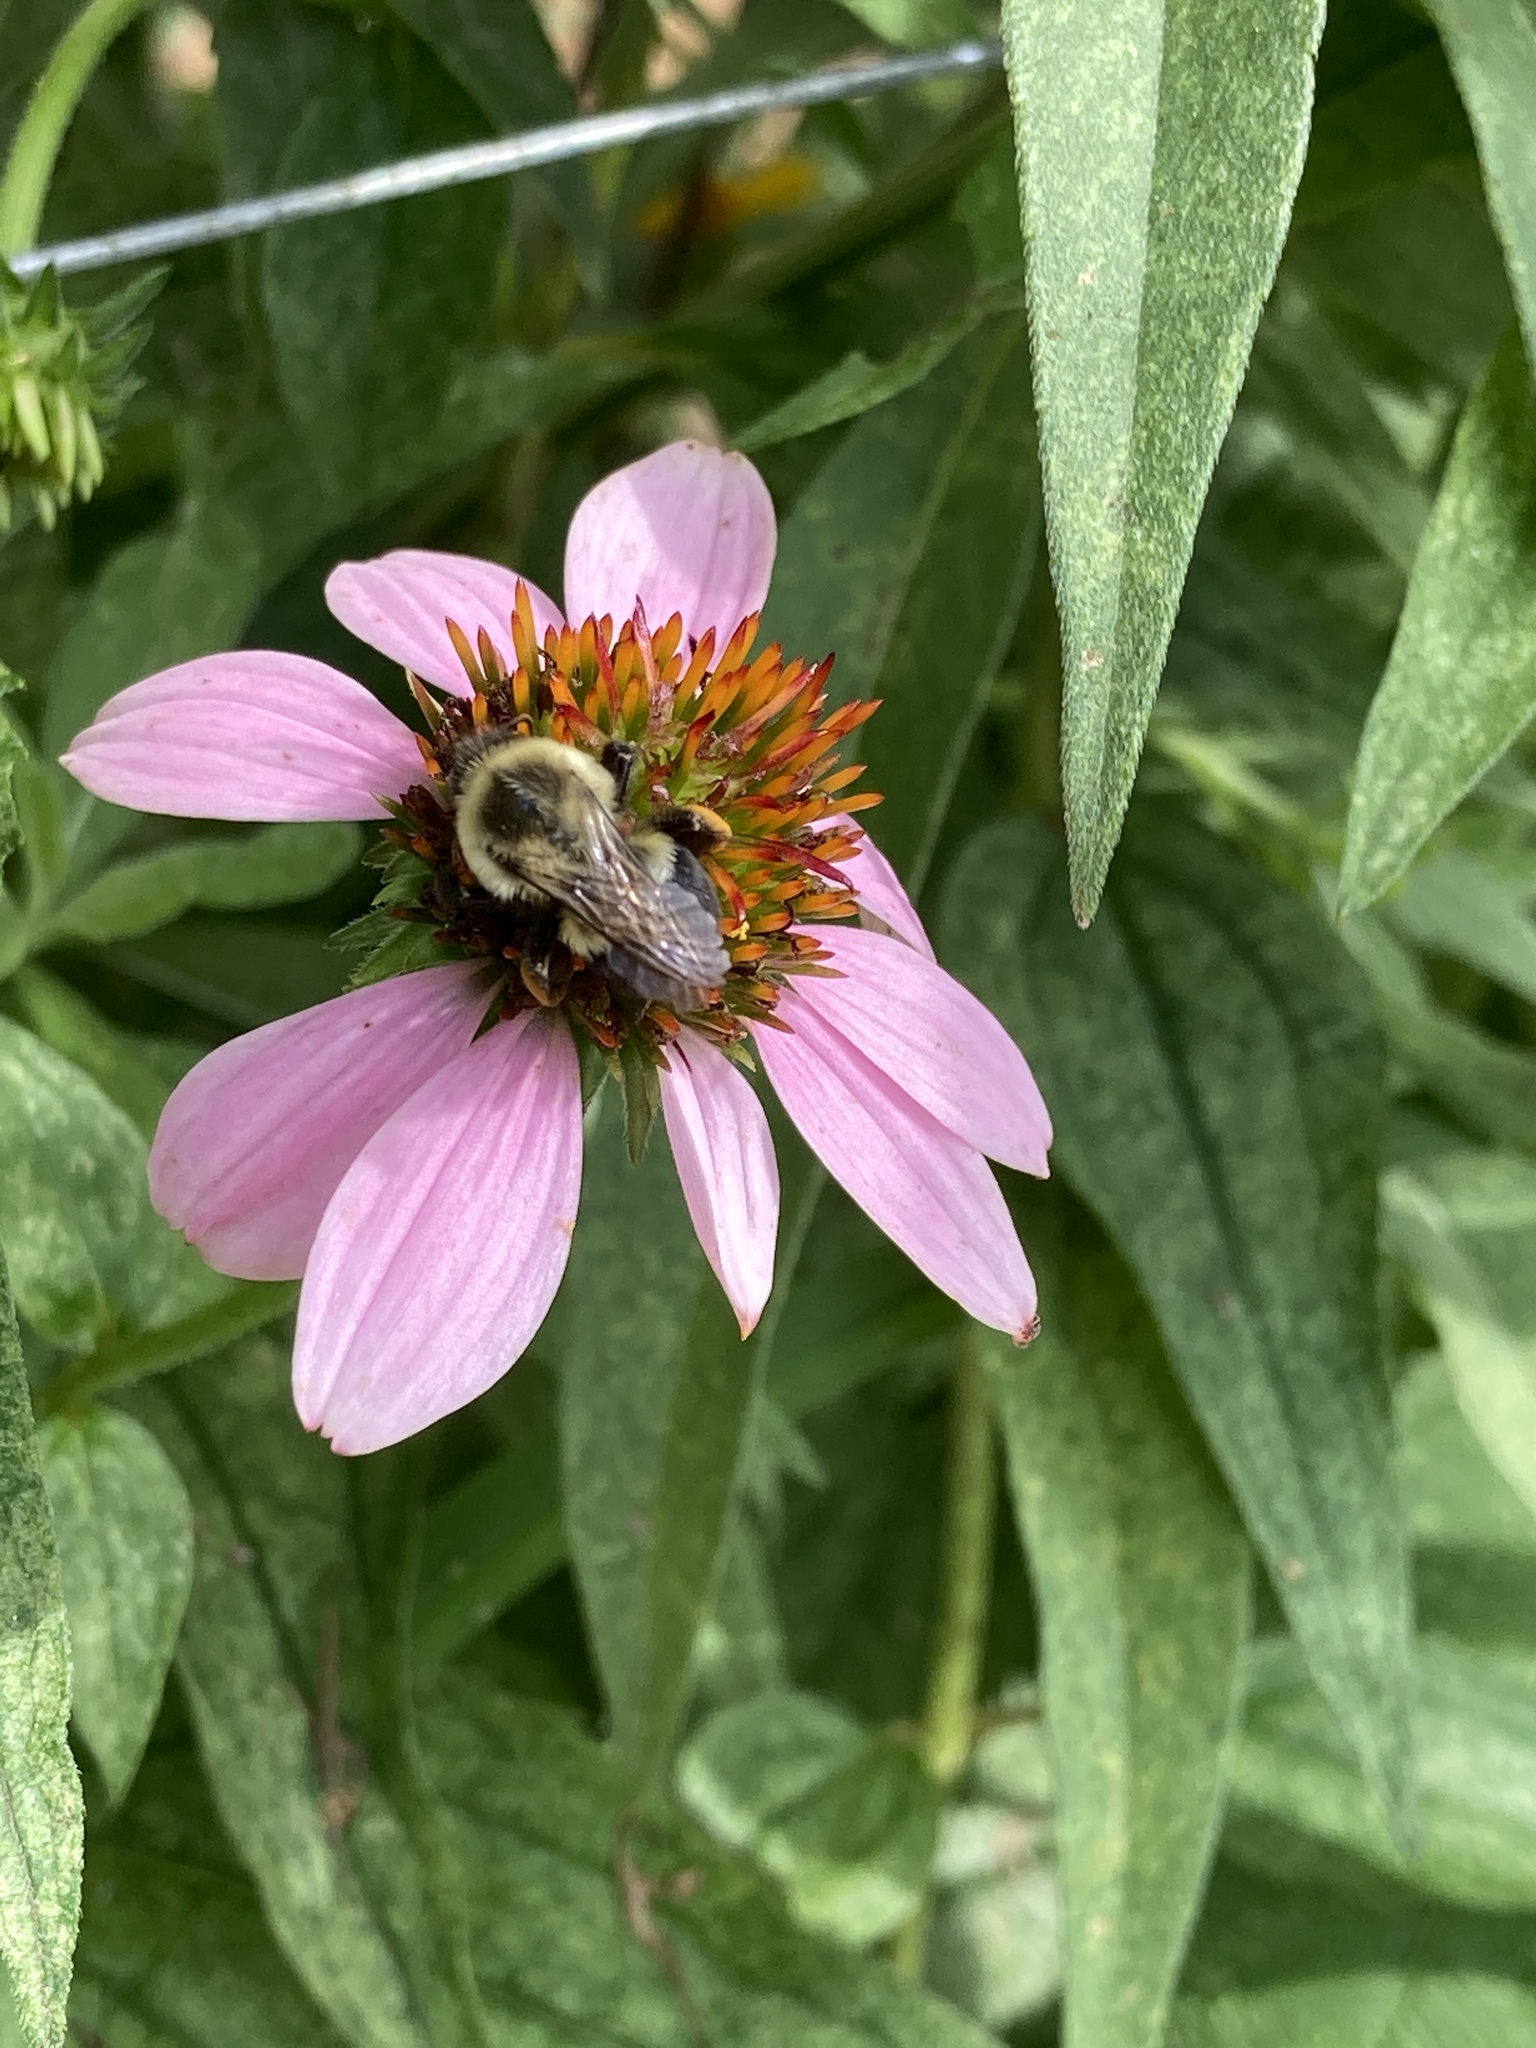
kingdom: Animalia
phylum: Arthropoda
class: Insecta
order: Hymenoptera
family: Apidae
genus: Bombus
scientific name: Bombus impatiens
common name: Common eastern bumble bee
